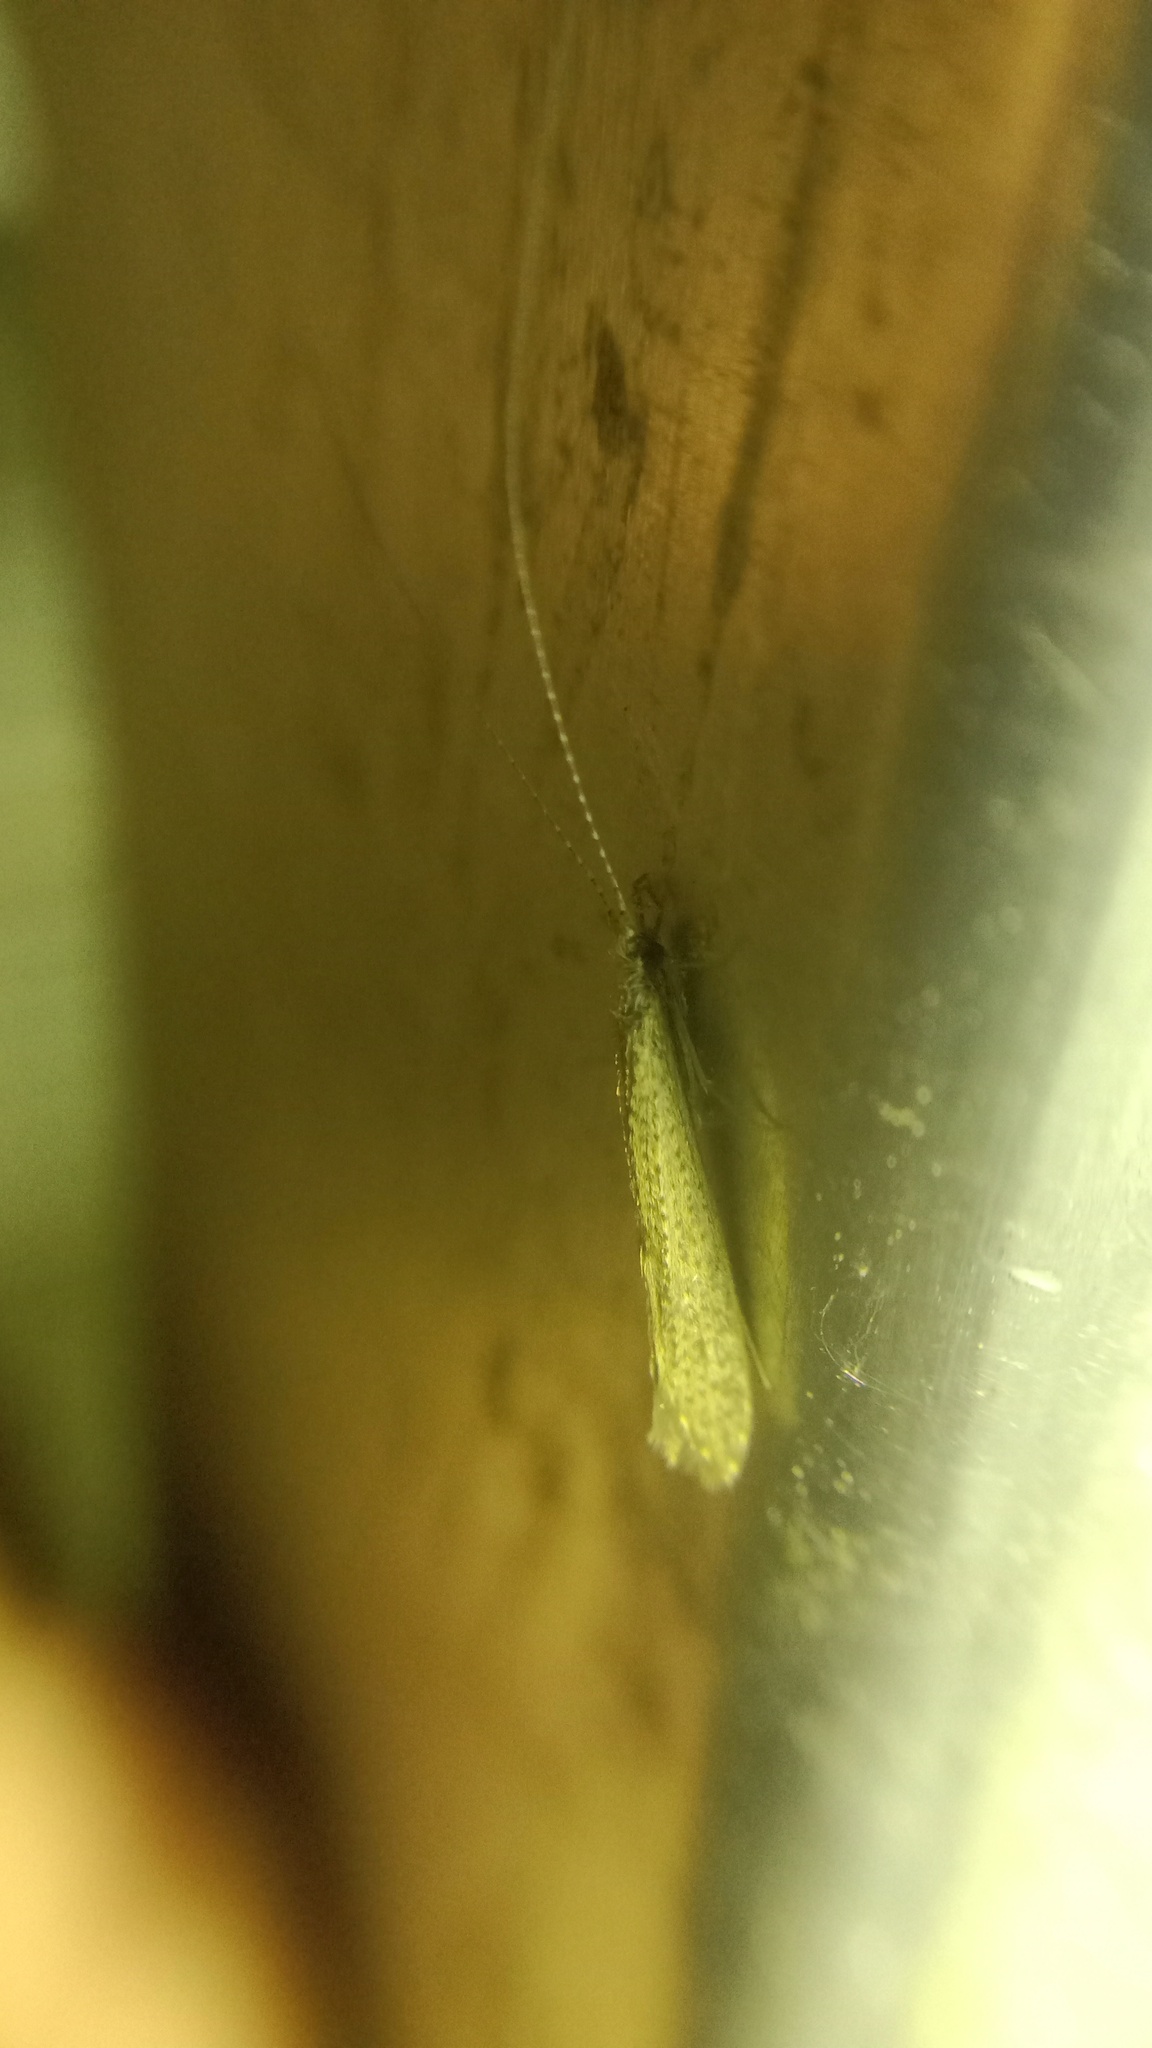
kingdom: Animalia
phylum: Arthropoda
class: Insecta
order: Trichoptera
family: Leptoceridae
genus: Leptocerus
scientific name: Leptocerus tineiformis
